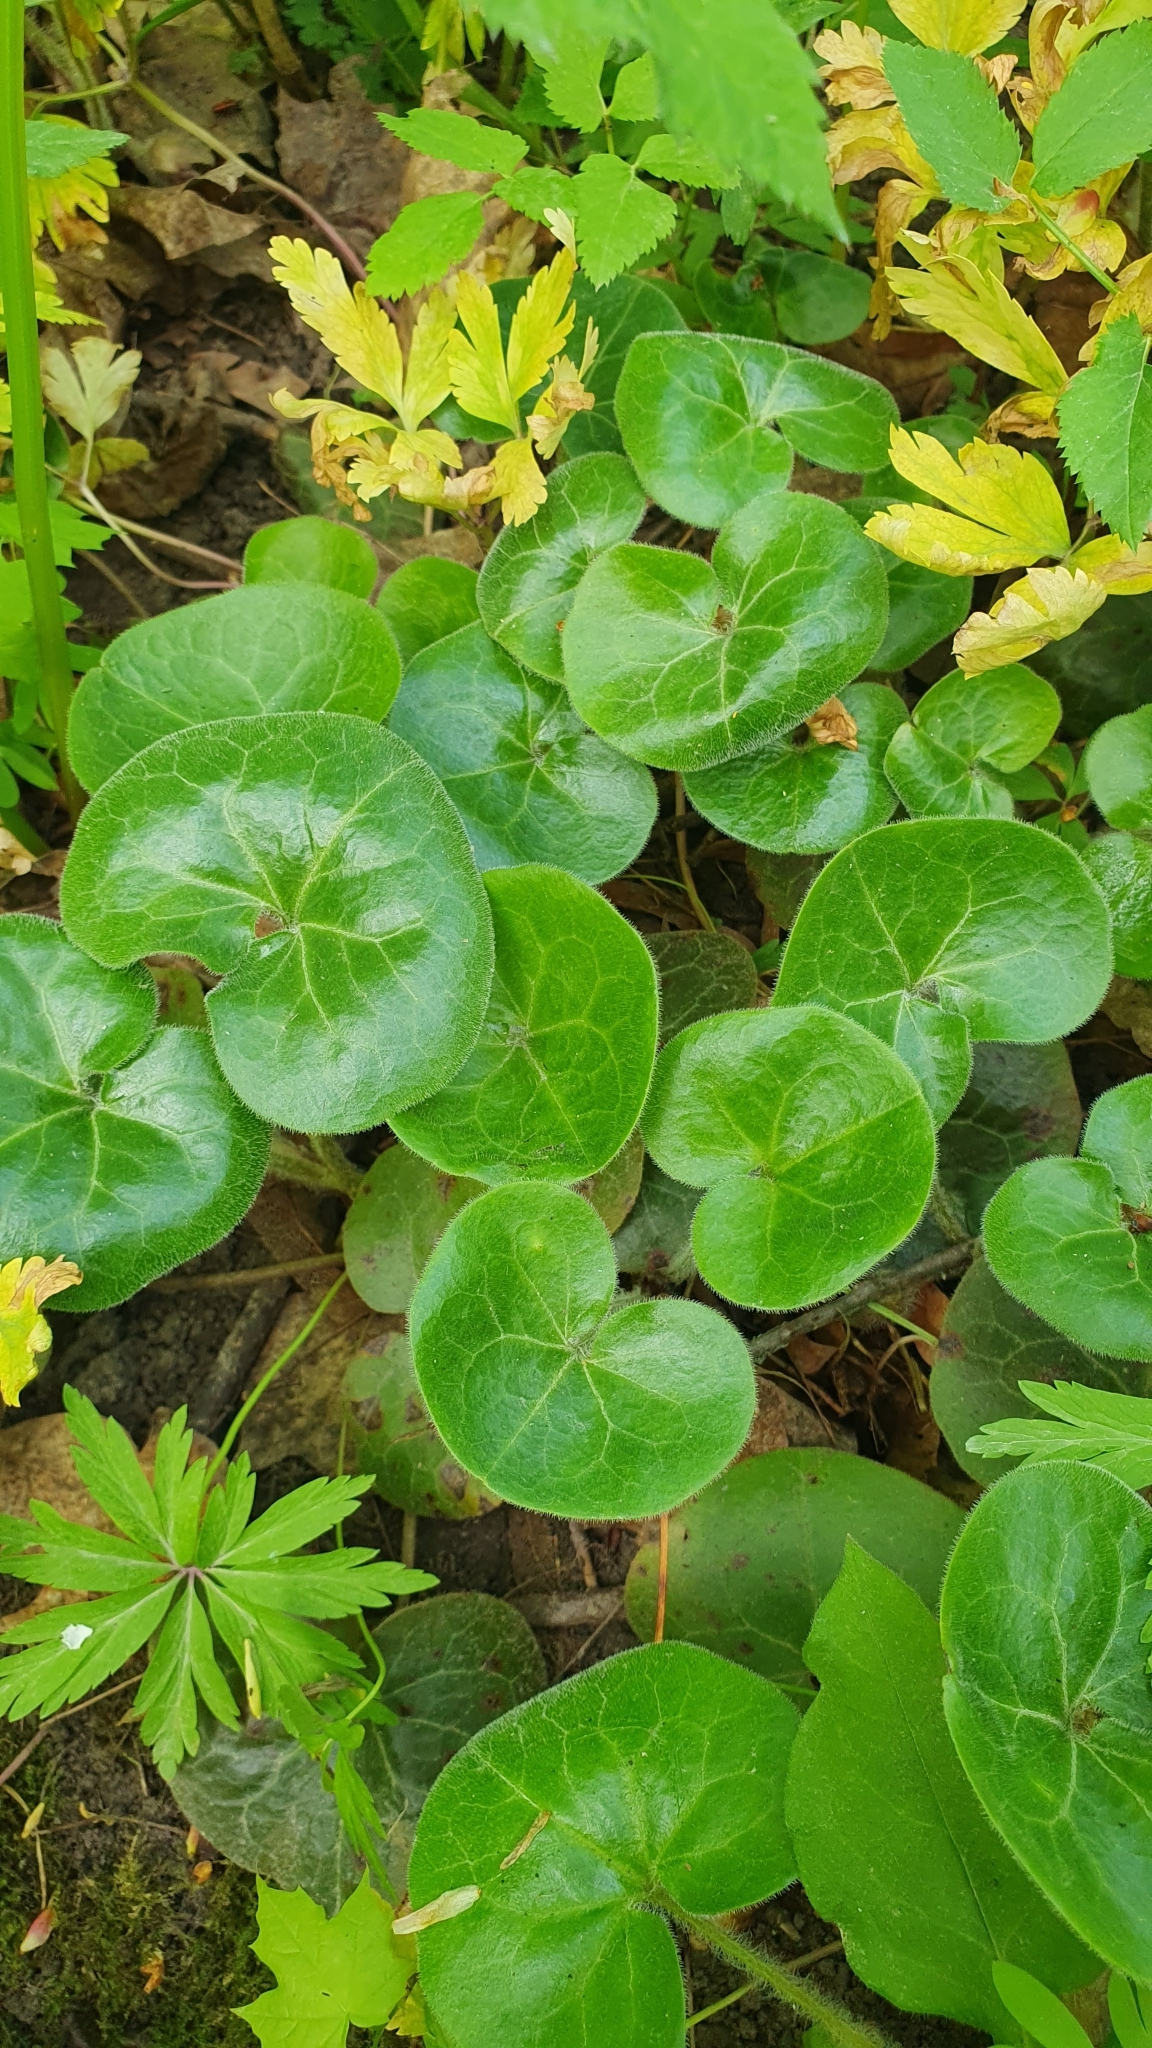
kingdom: Plantae
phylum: Tracheophyta
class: Magnoliopsida
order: Piperales
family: Aristolochiaceae
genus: Asarum
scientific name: Asarum europaeum
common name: Asarabacca
